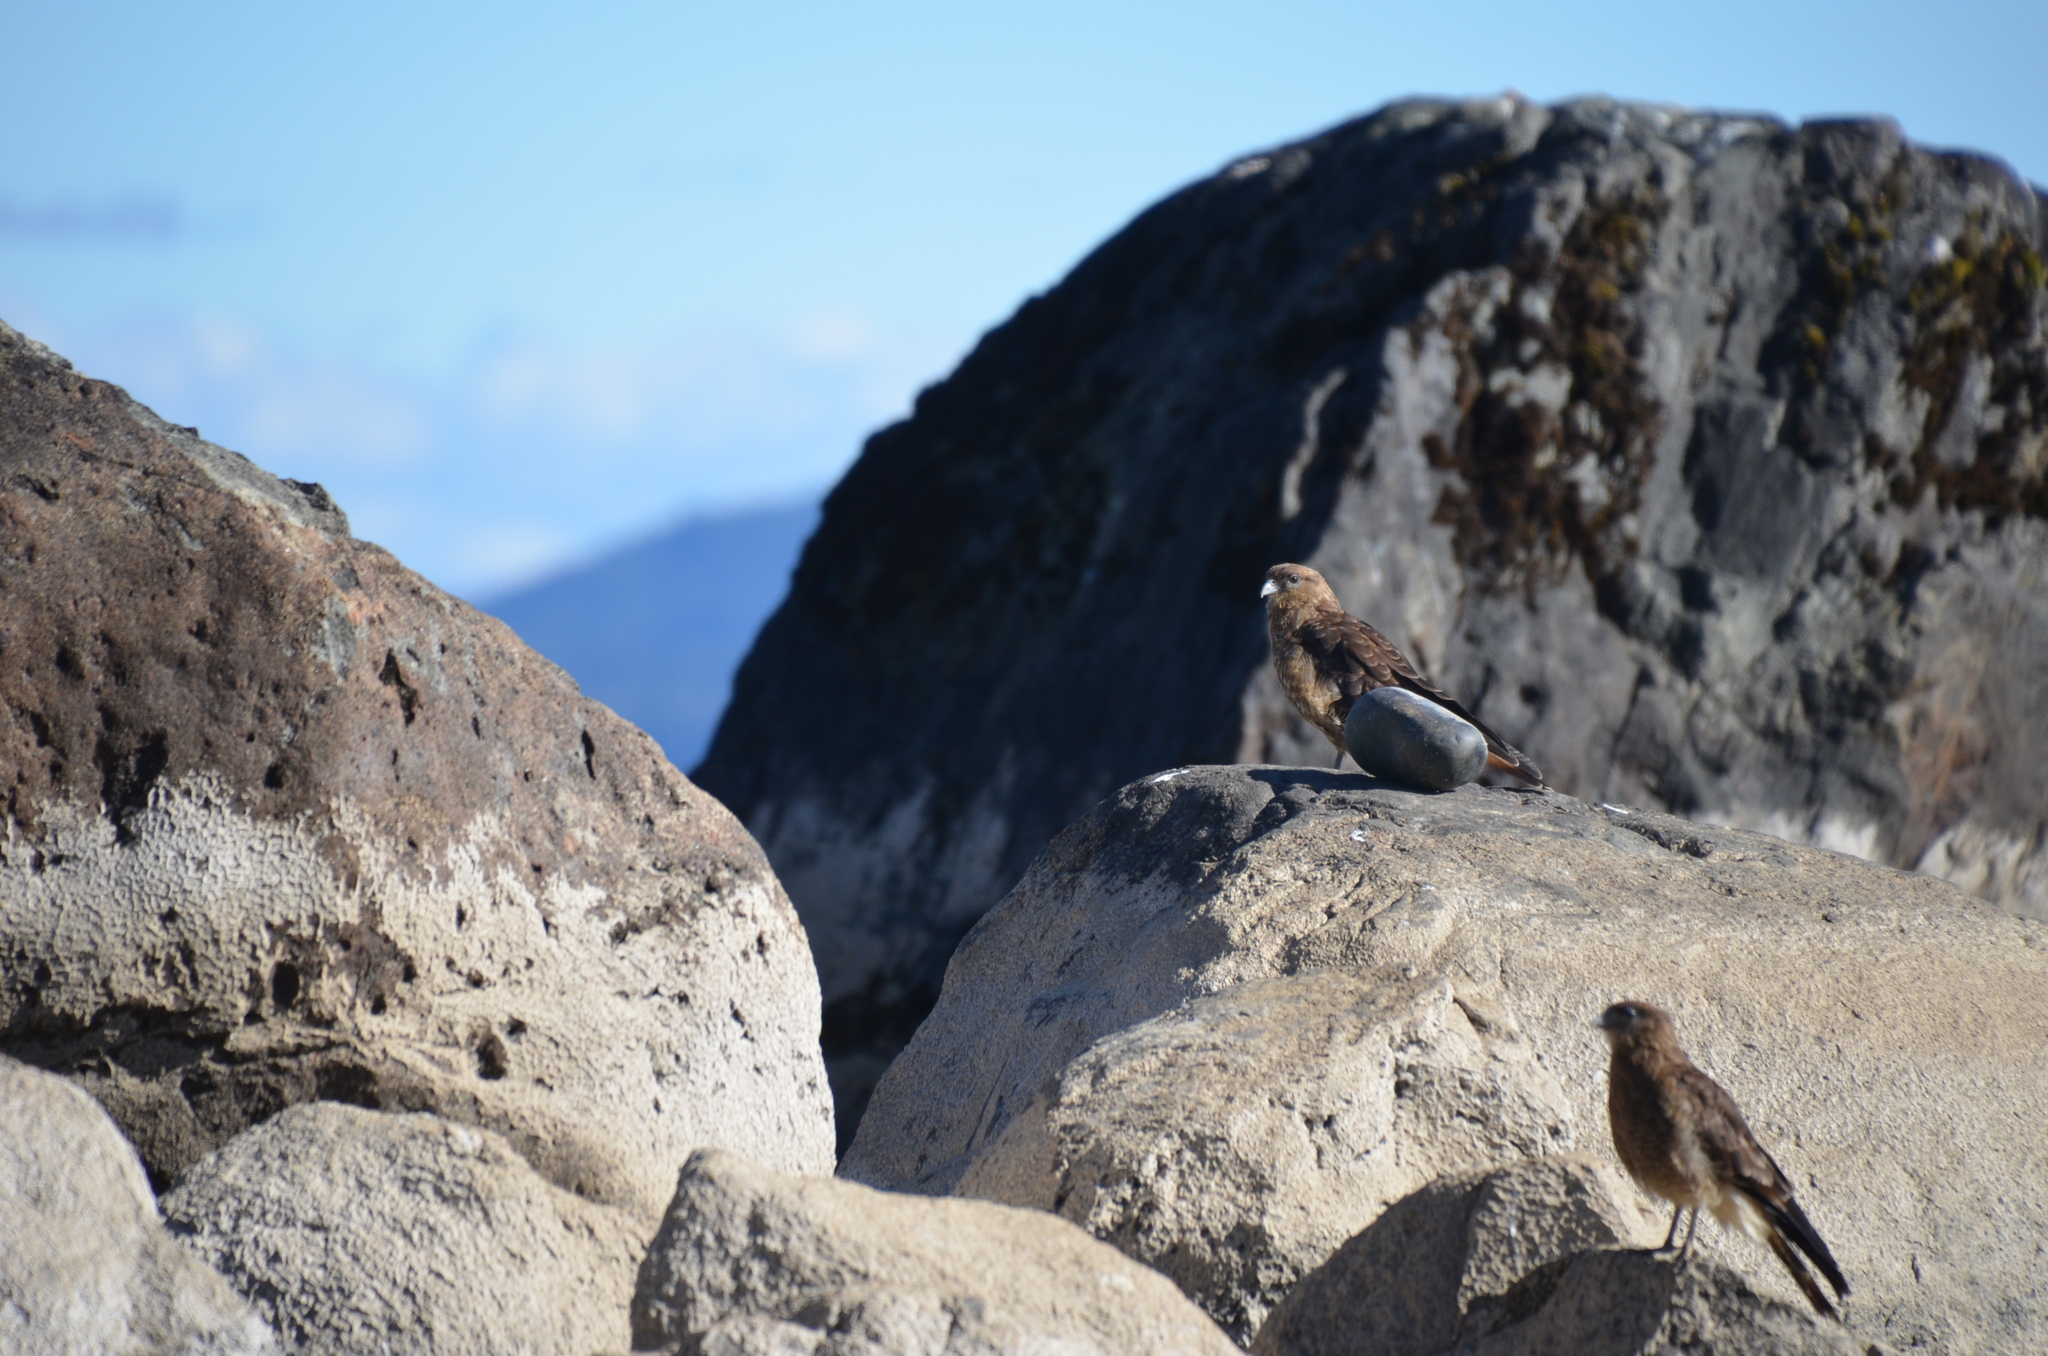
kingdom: Animalia
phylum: Chordata
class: Aves
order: Falconiformes
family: Falconidae
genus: Daptrius
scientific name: Daptrius
